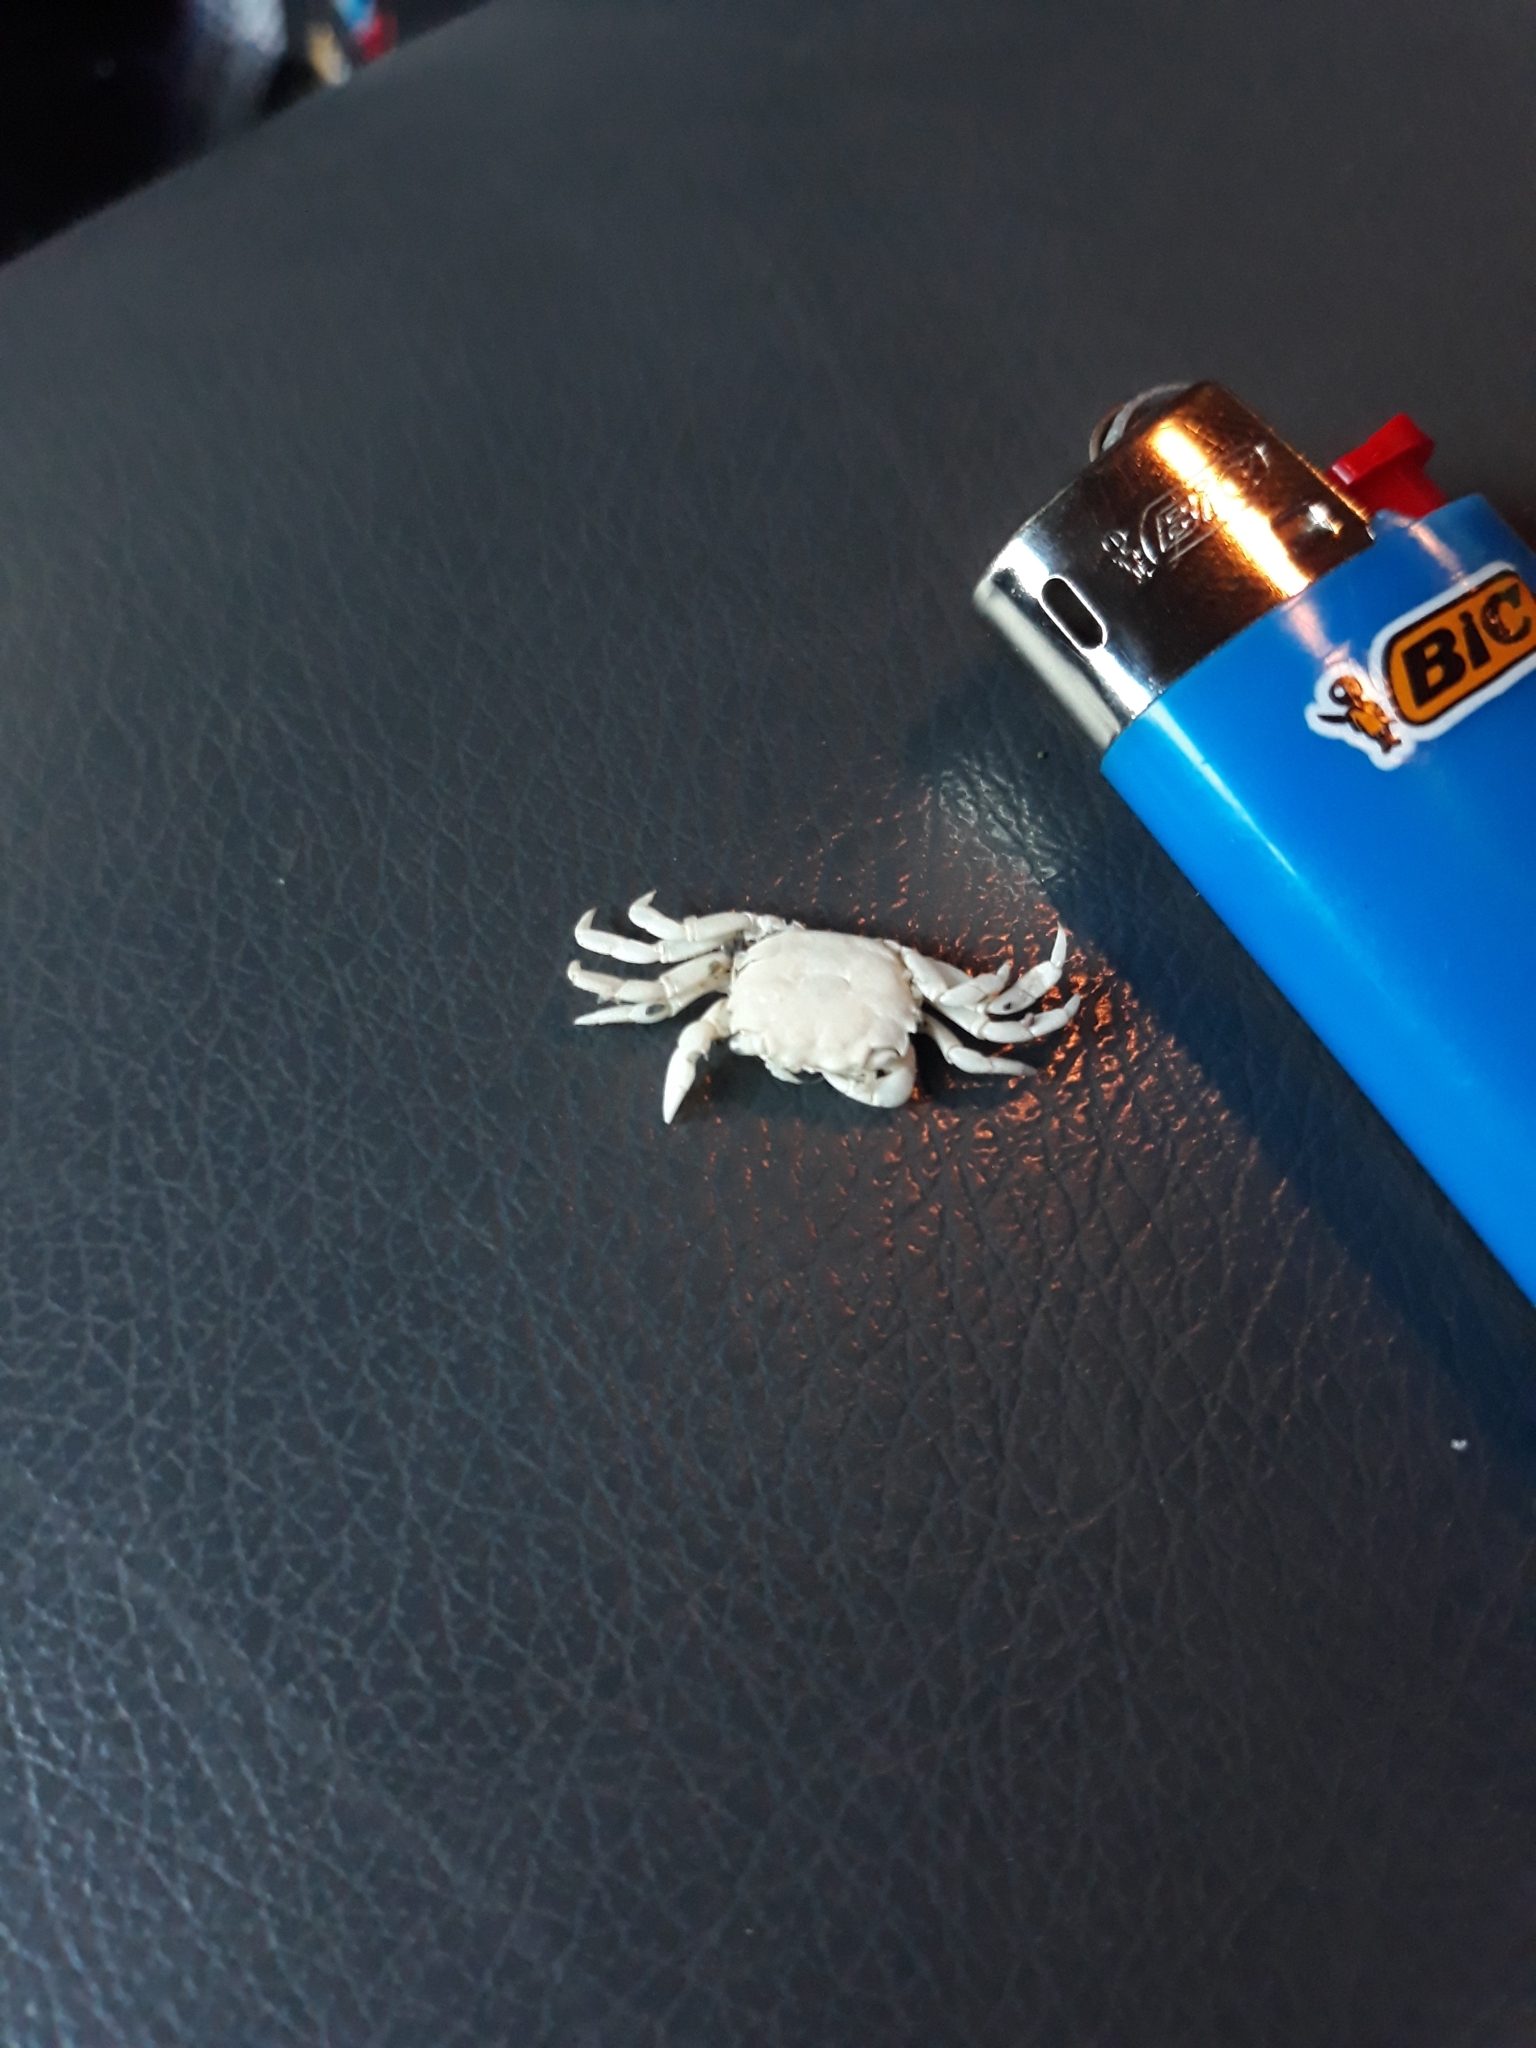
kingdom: Animalia
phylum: Arthropoda
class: Malacostraca
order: Decapoda
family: Varunidae
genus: Hemigrapsus
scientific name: Hemigrapsus oregonensis
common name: Yellow shore crab
